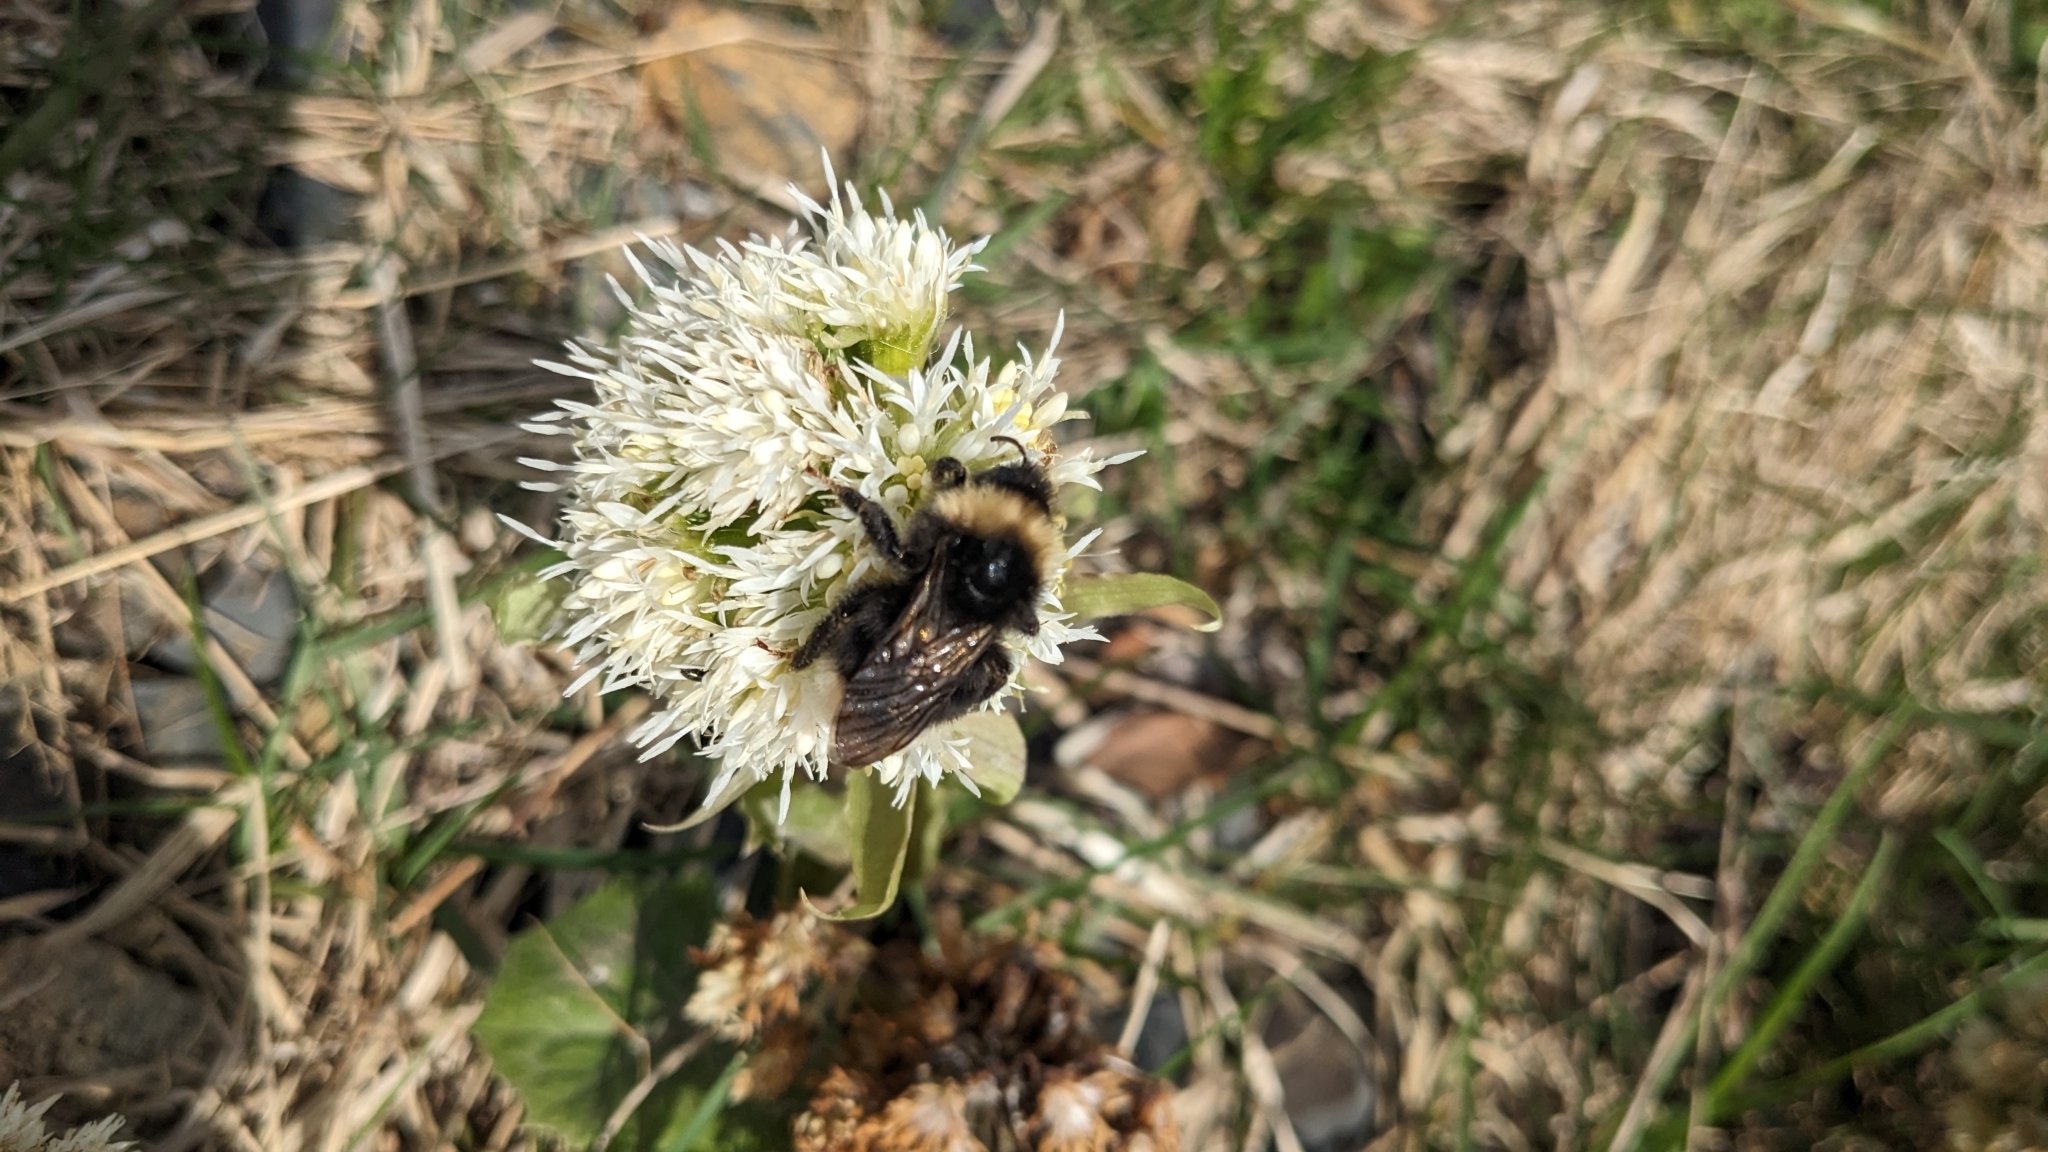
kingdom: Animalia
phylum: Arthropoda
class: Insecta
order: Hymenoptera
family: Apidae
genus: Bombus
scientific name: Bombus bohemicus
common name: Gypsy cuckoo bee
